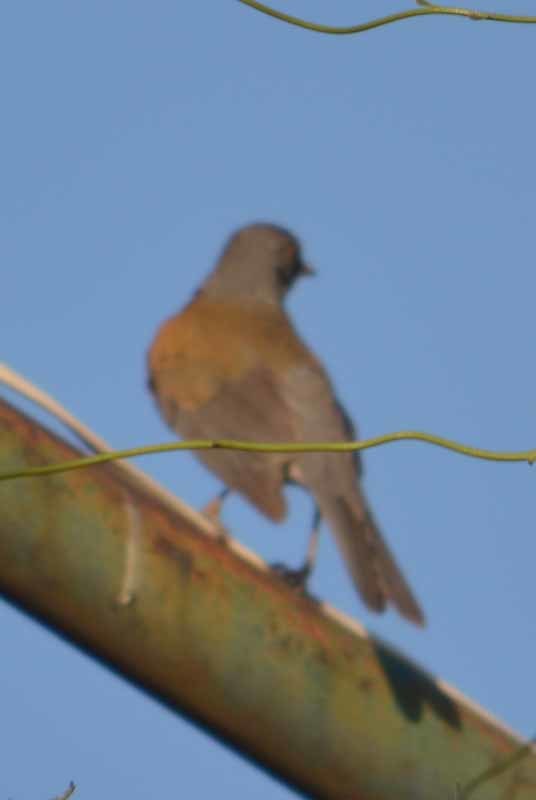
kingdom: Animalia
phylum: Chordata
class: Aves
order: Passeriformes
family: Turdidae
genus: Turdus
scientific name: Turdus rufopalliatus
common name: Rufous-backed robin
